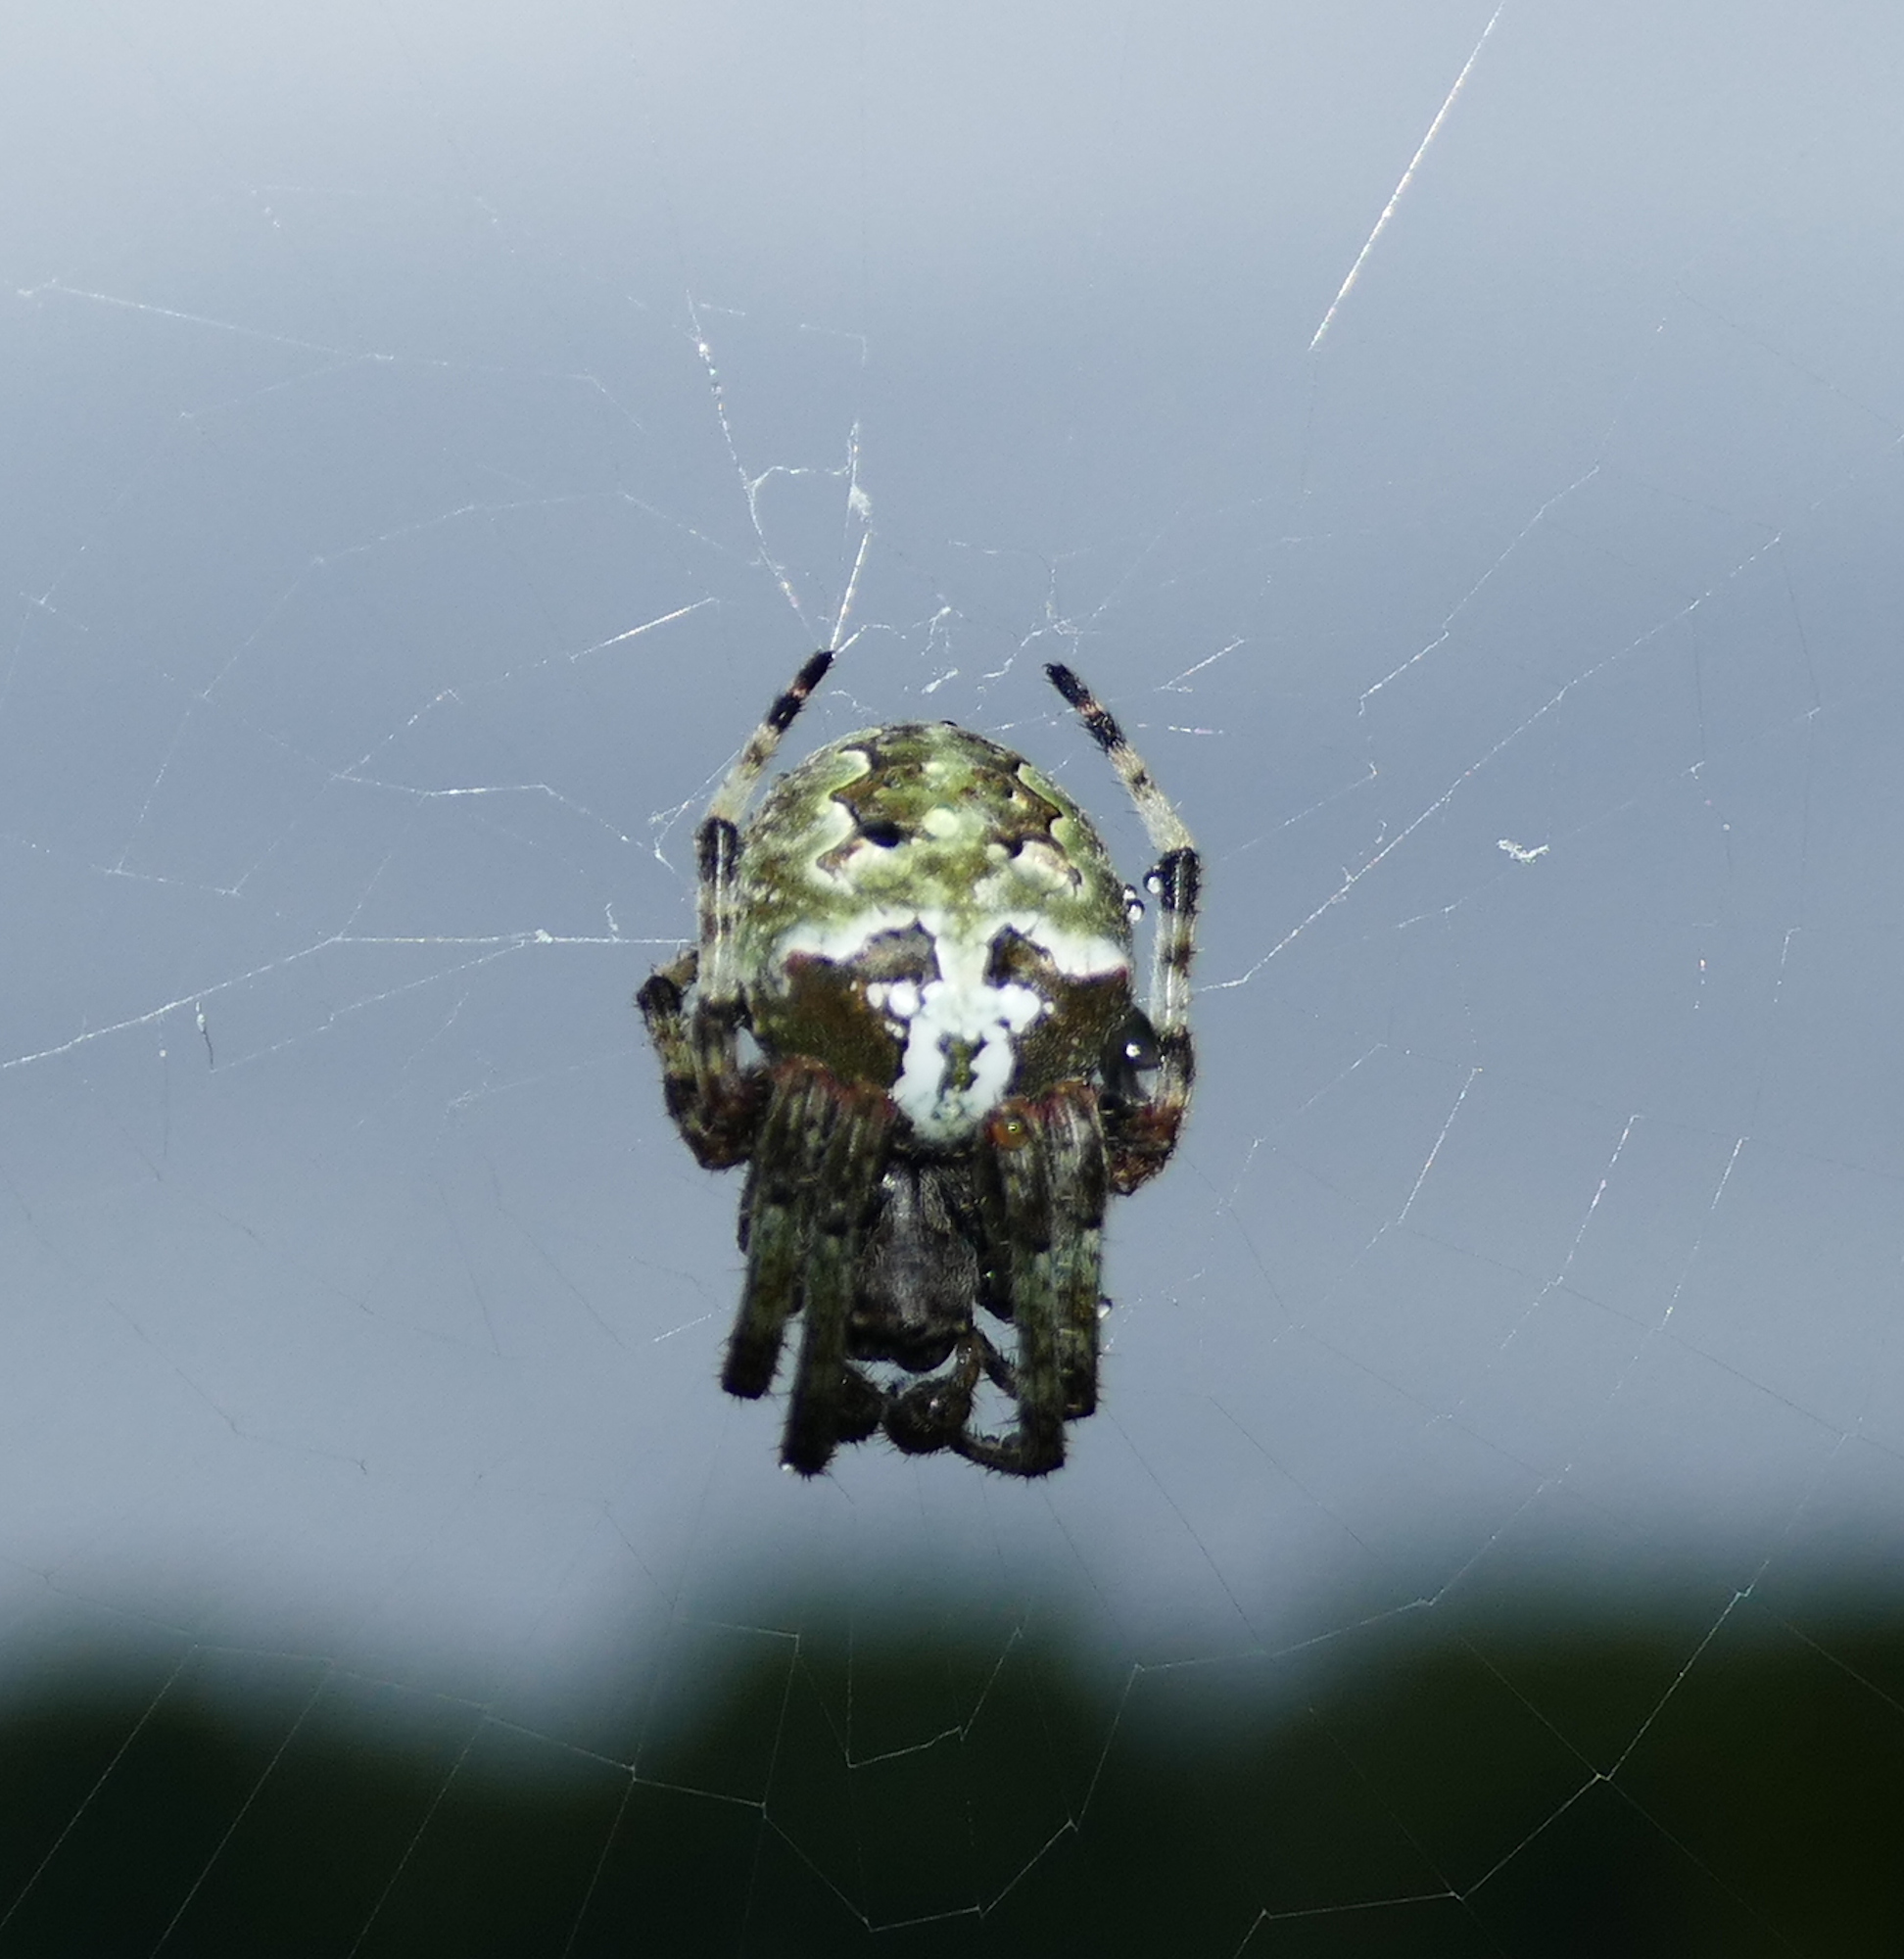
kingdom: Animalia
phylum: Arthropoda
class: Arachnida
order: Araneae
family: Araneidae
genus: Araneus
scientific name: Araneus bicentenarius
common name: Giant lichen orbweaver
